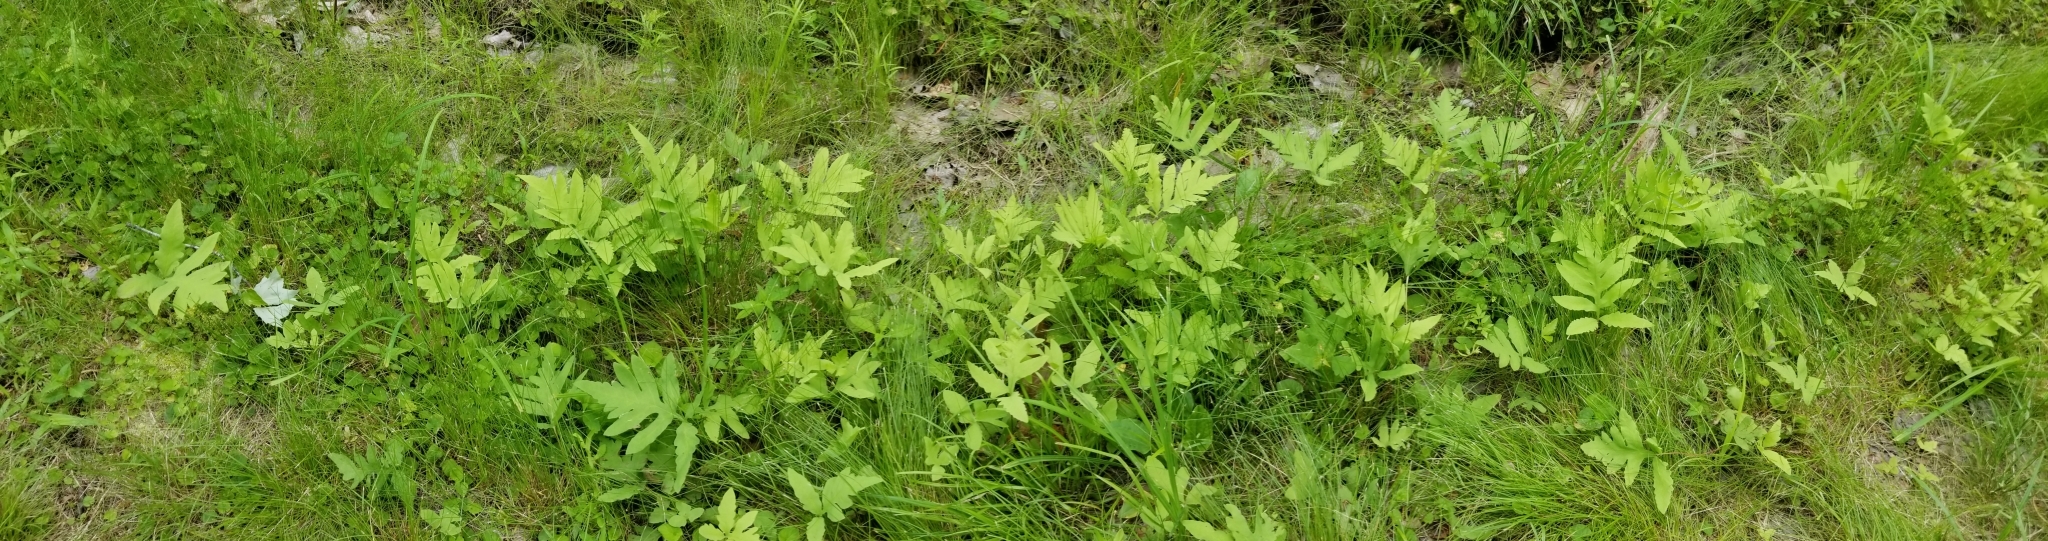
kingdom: Plantae
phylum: Tracheophyta
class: Polypodiopsida
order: Polypodiales
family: Onocleaceae
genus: Onoclea
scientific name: Onoclea sensibilis
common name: Sensitive fern
